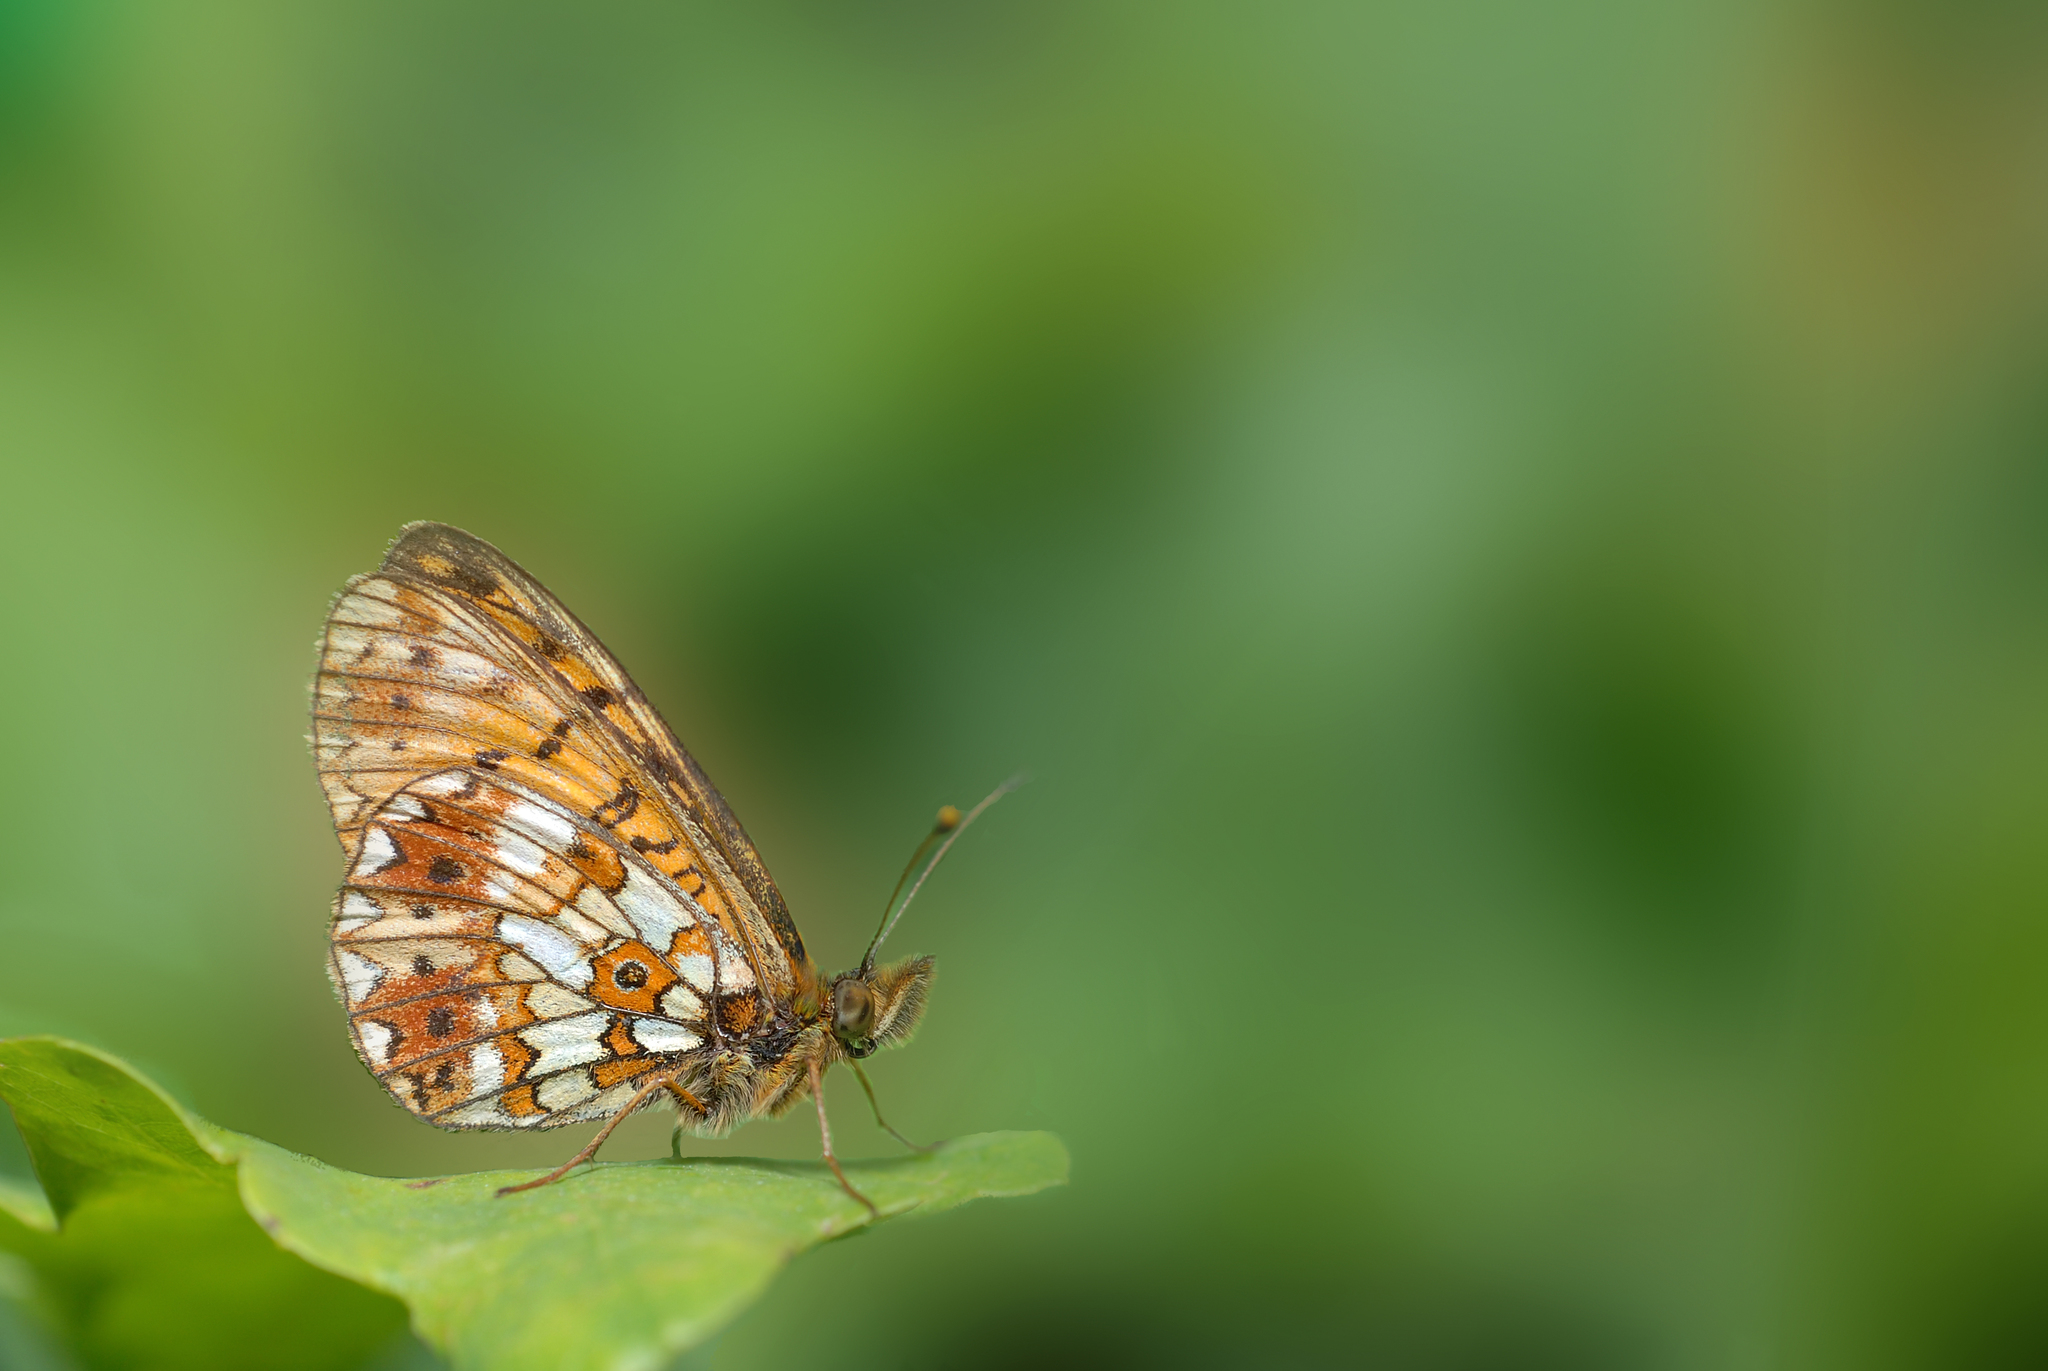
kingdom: Animalia
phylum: Arthropoda
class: Insecta
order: Lepidoptera
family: Nymphalidae
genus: Boloria
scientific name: Boloria selene
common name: Small pearl-bordered fritillary
